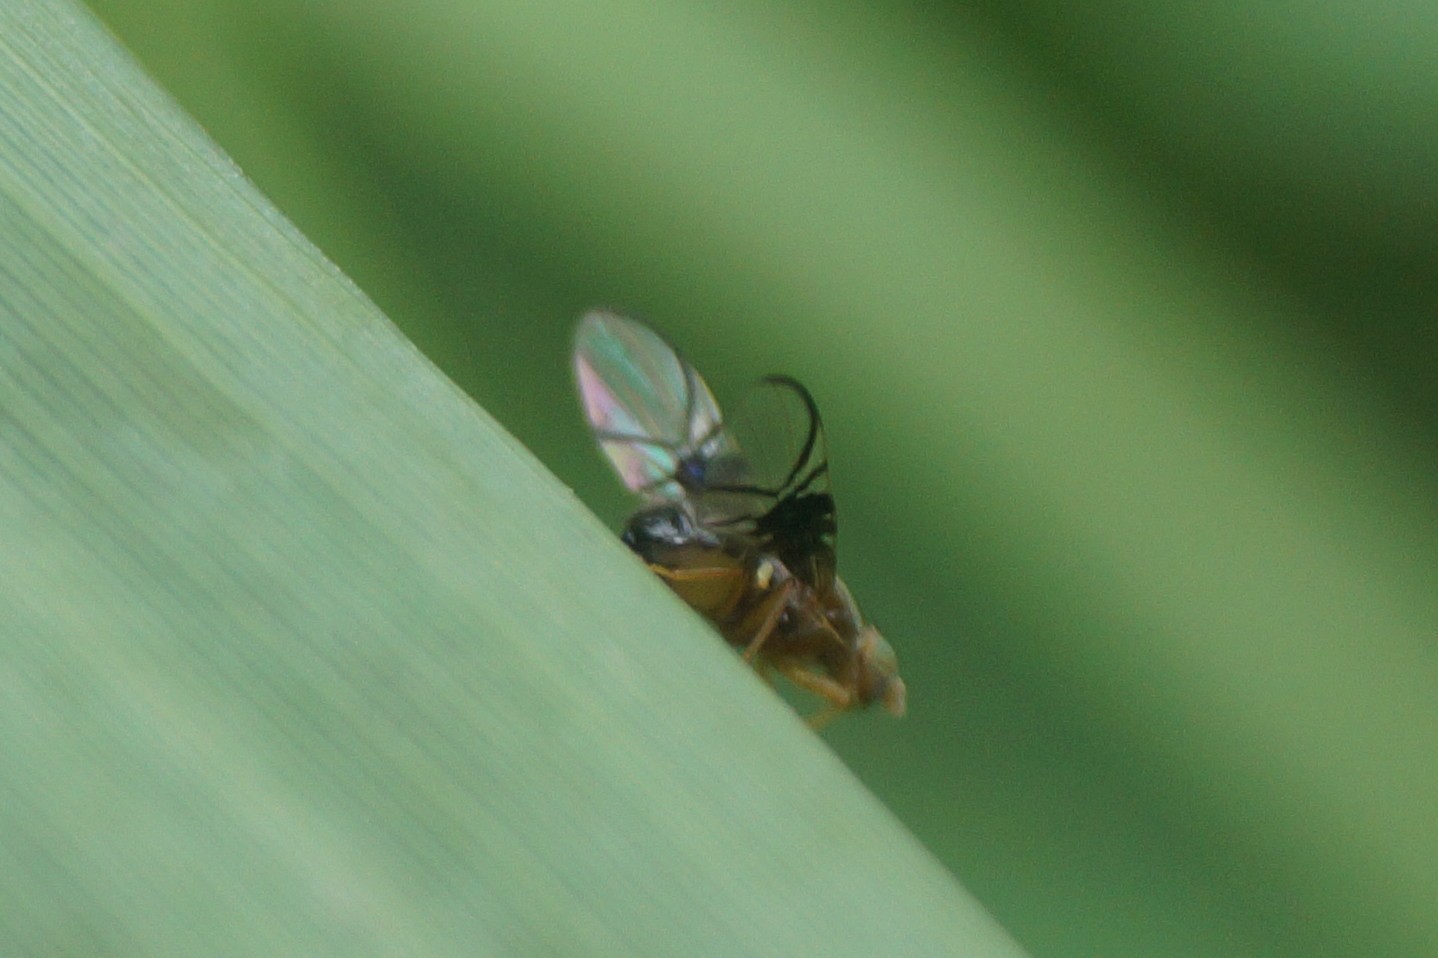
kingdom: Animalia
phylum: Arthropoda
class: Insecta
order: Diptera
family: Tephritidae
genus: Anomoia
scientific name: Anomoia purmunda
